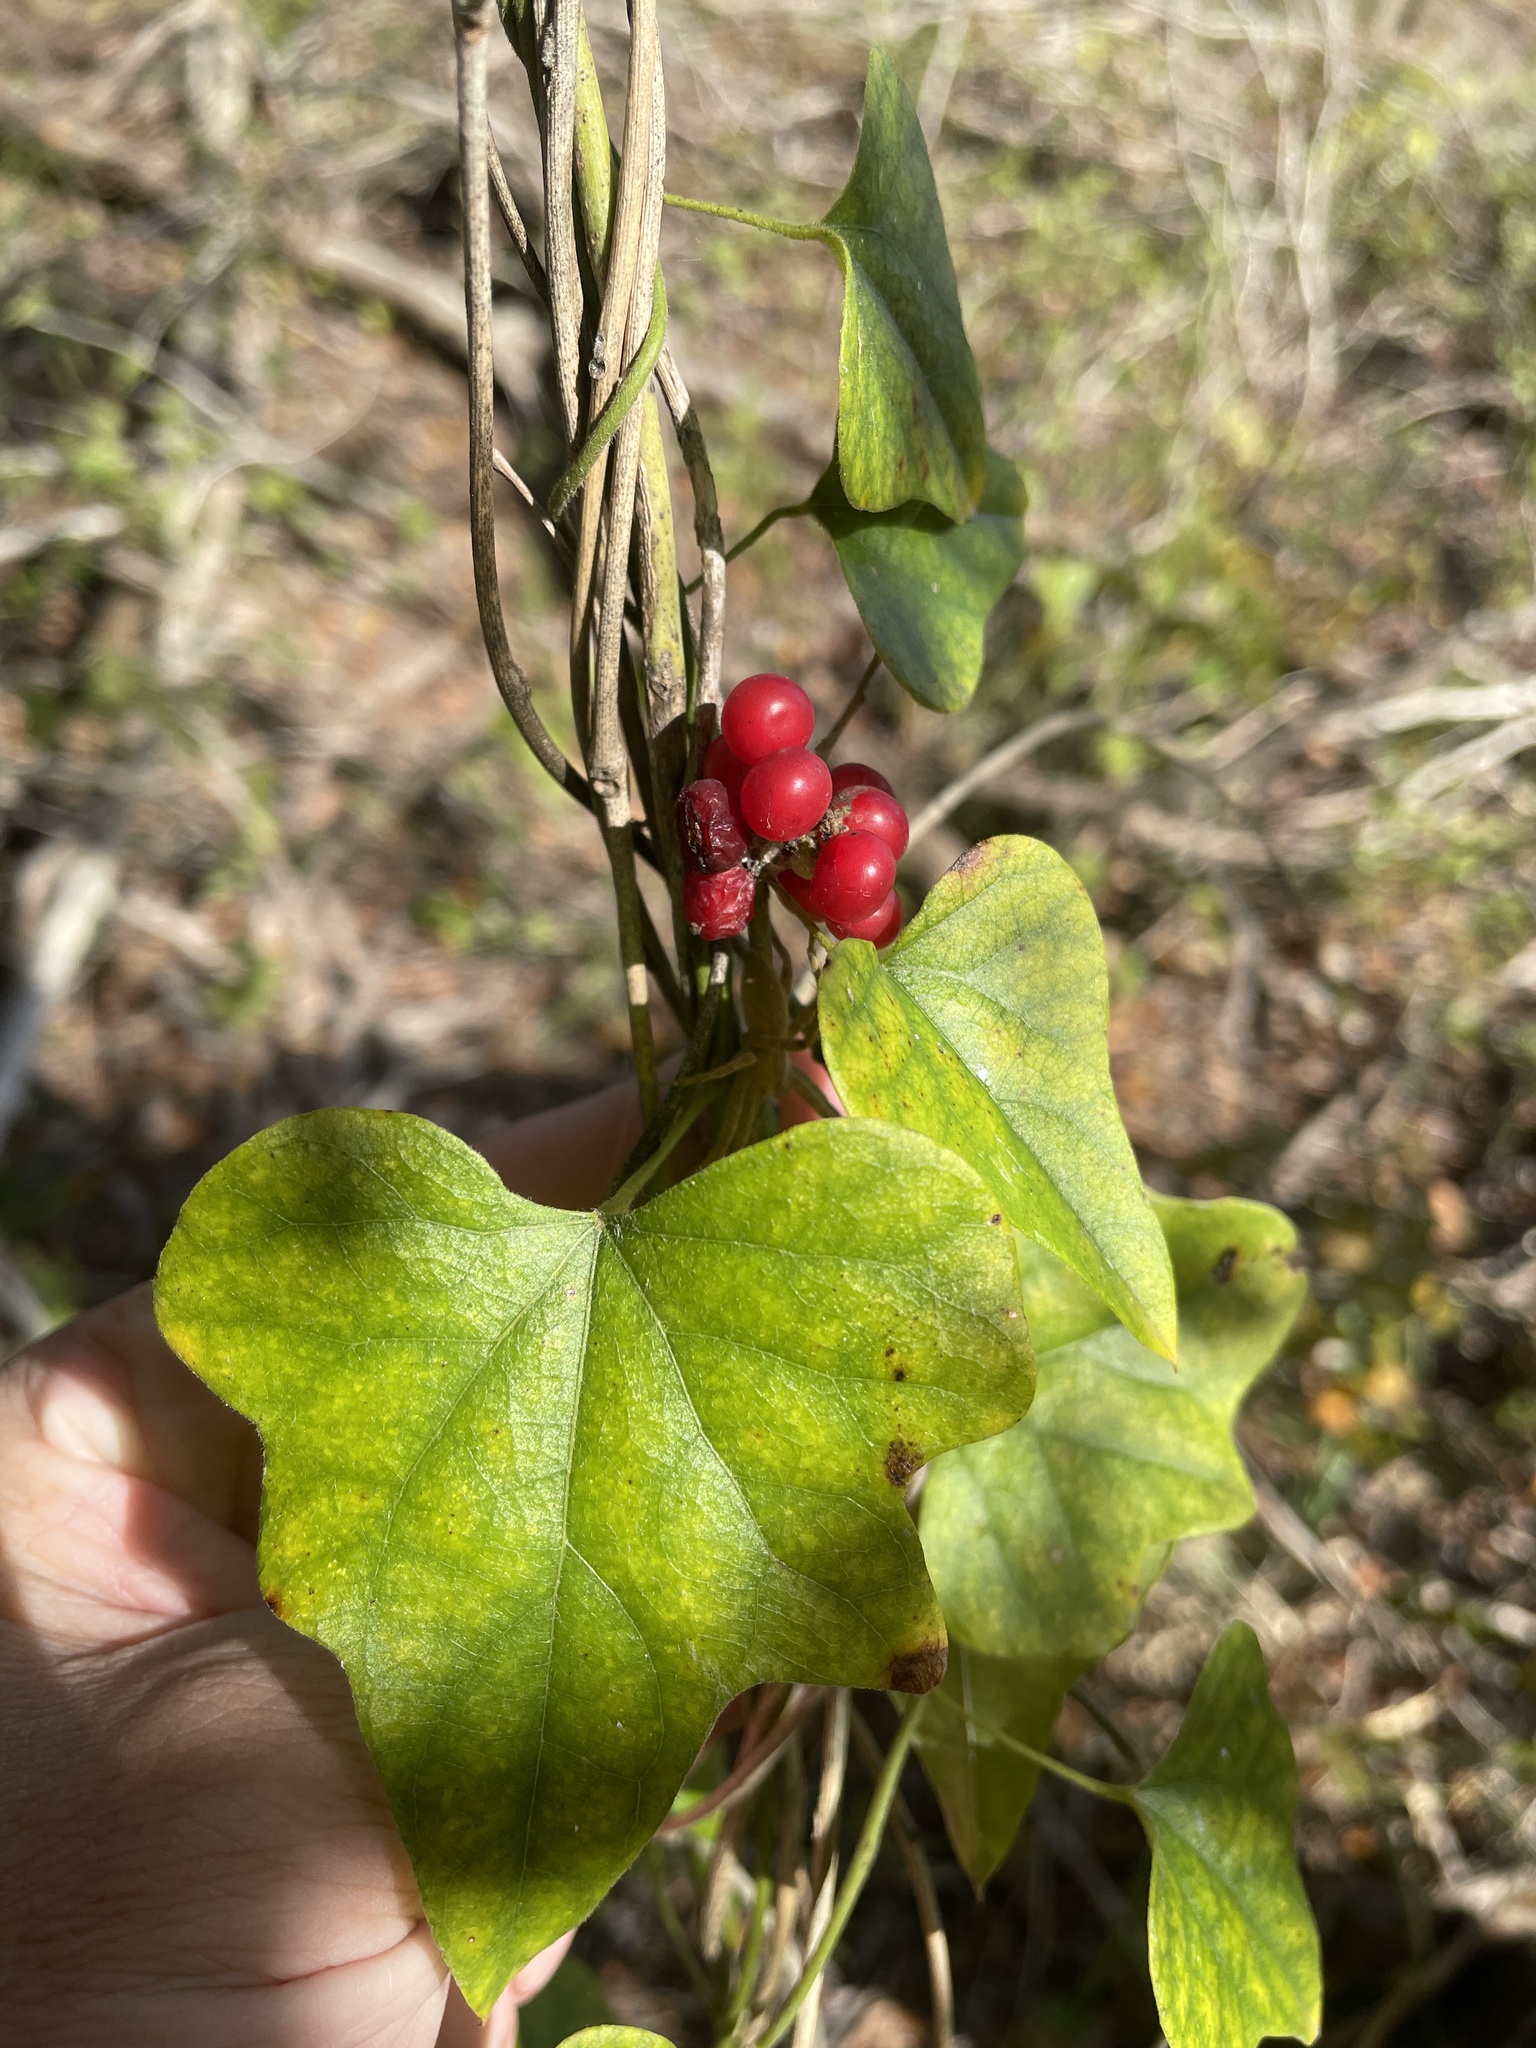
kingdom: Plantae
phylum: Tracheophyta
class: Magnoliopsida
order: Ranunculales
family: Menispermaceae
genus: Cocculus
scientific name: Cocculus carolinus
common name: Carolina moonseed
